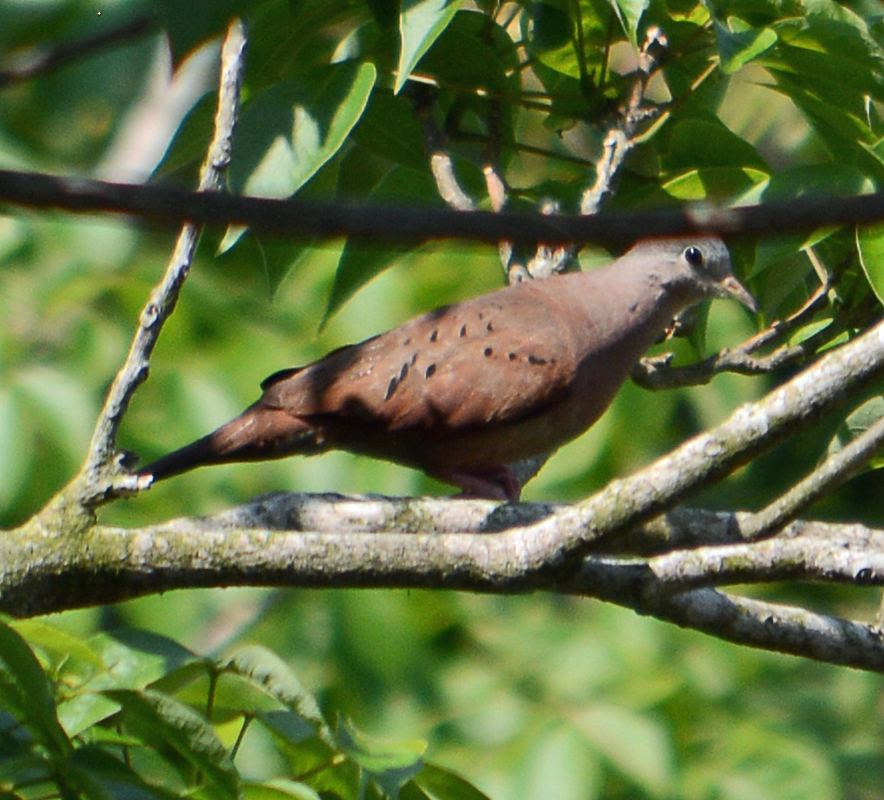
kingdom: Animalia
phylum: Chordata
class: Aves
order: Columbiformes
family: Columbidae
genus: Columbina
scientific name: Columbina talpacoti
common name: Ruddy ground dove
